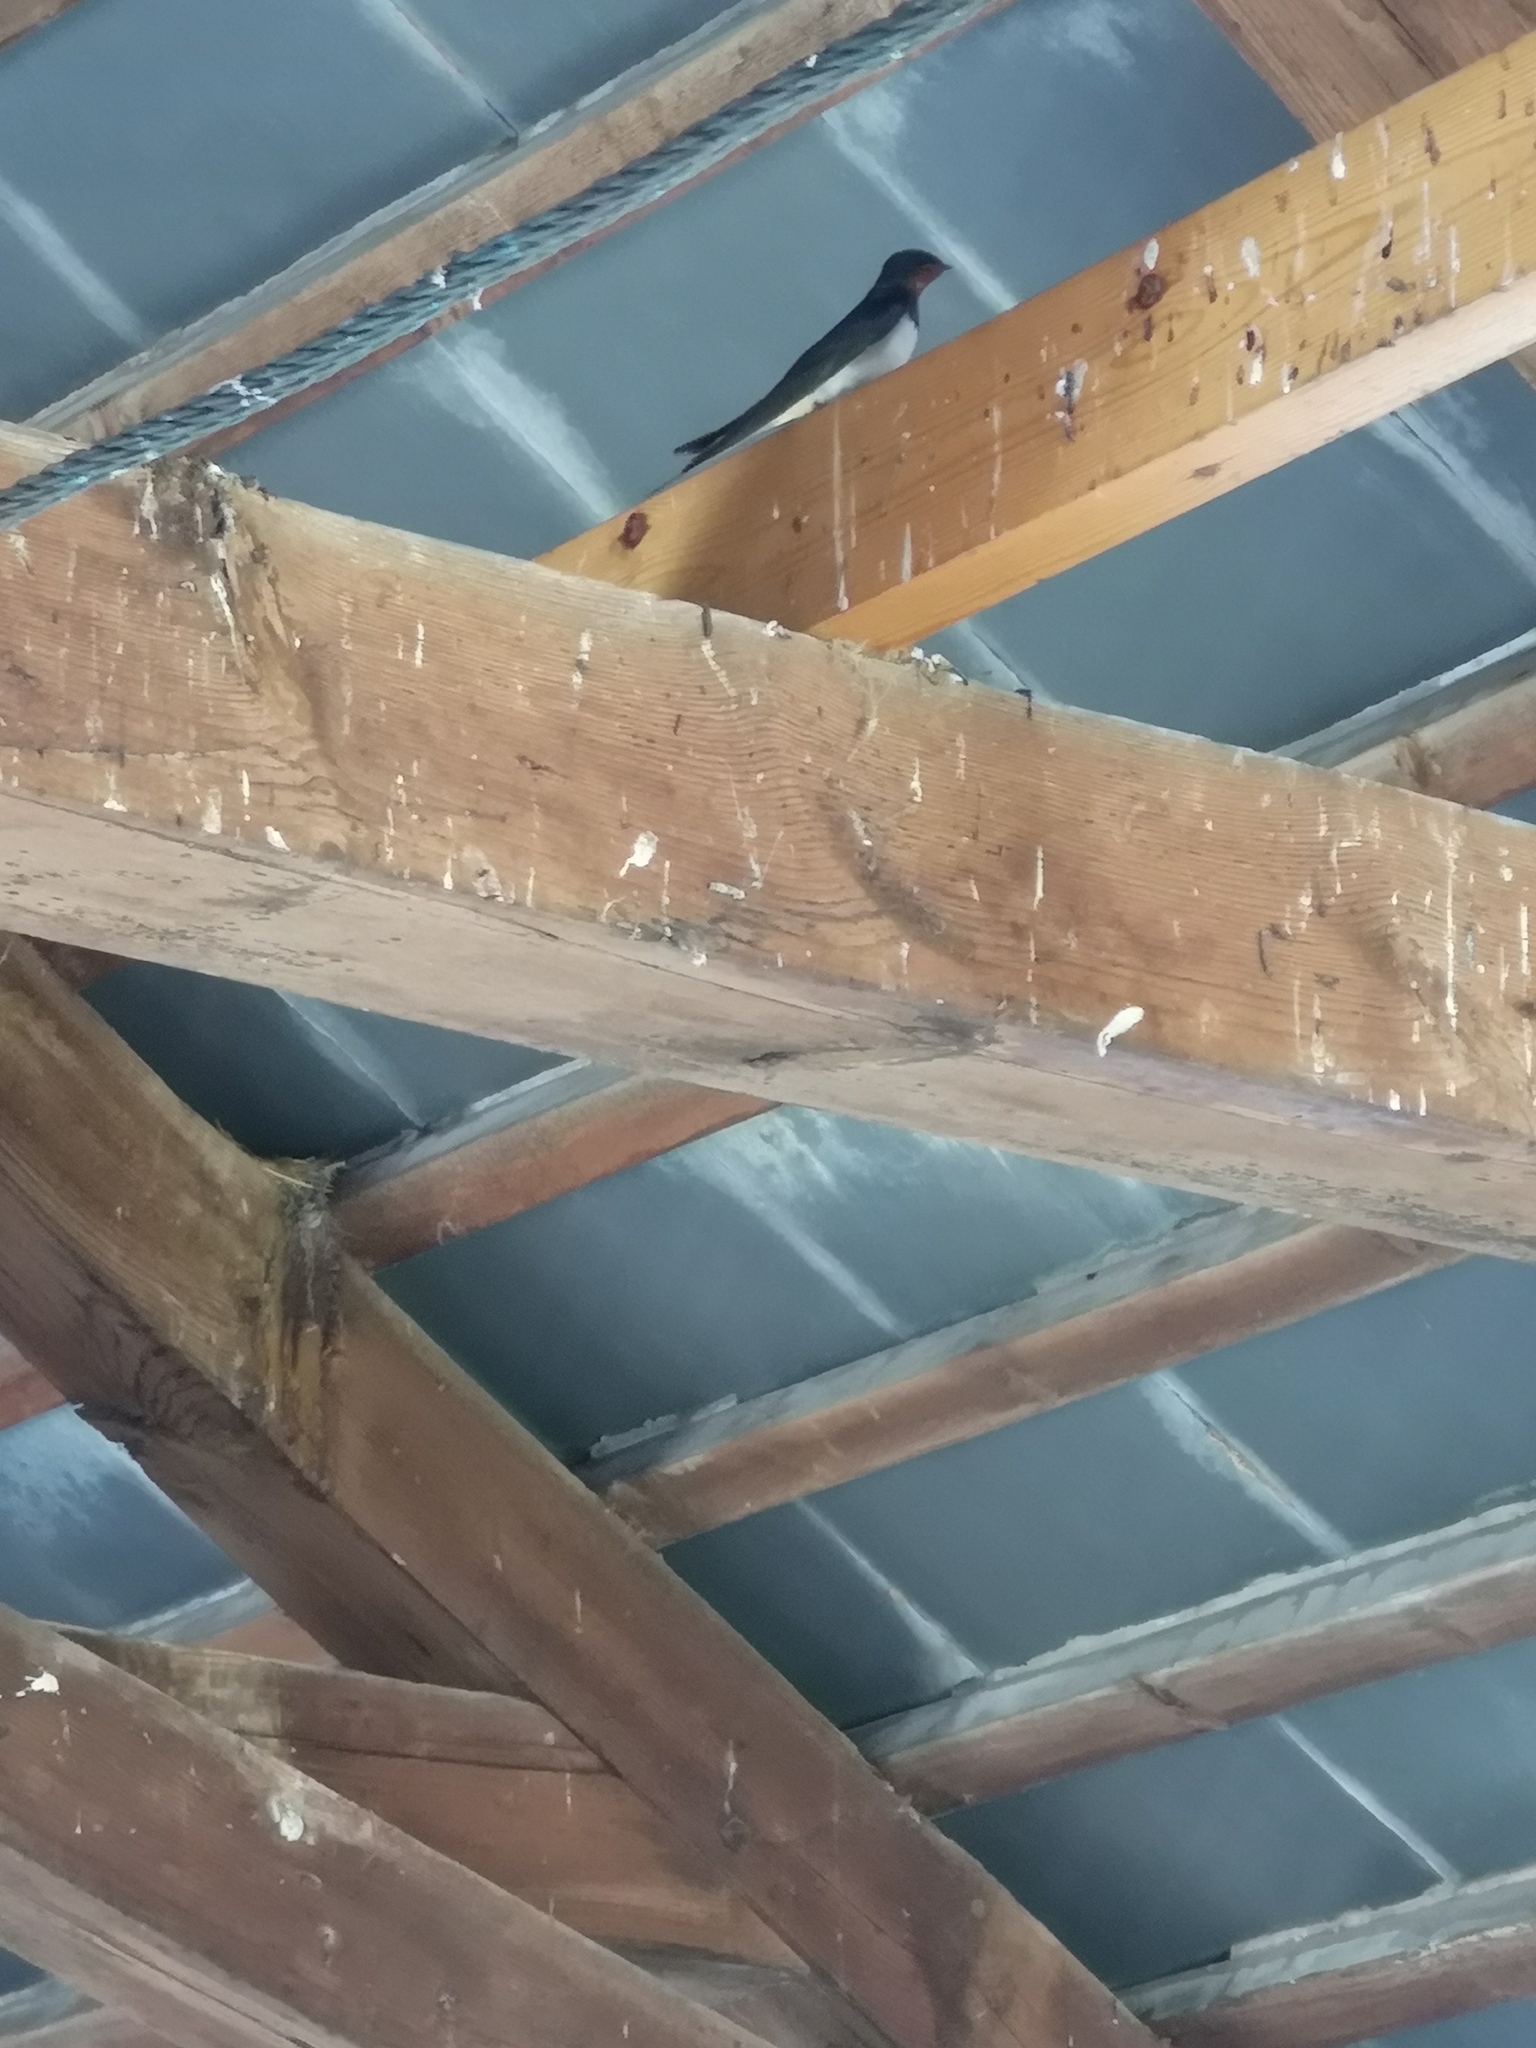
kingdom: Animalia
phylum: Chordata
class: Aves
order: Passeriformes
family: Hirundinidae
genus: Hirundo
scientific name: Hirundo rustica
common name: Barn swallow
